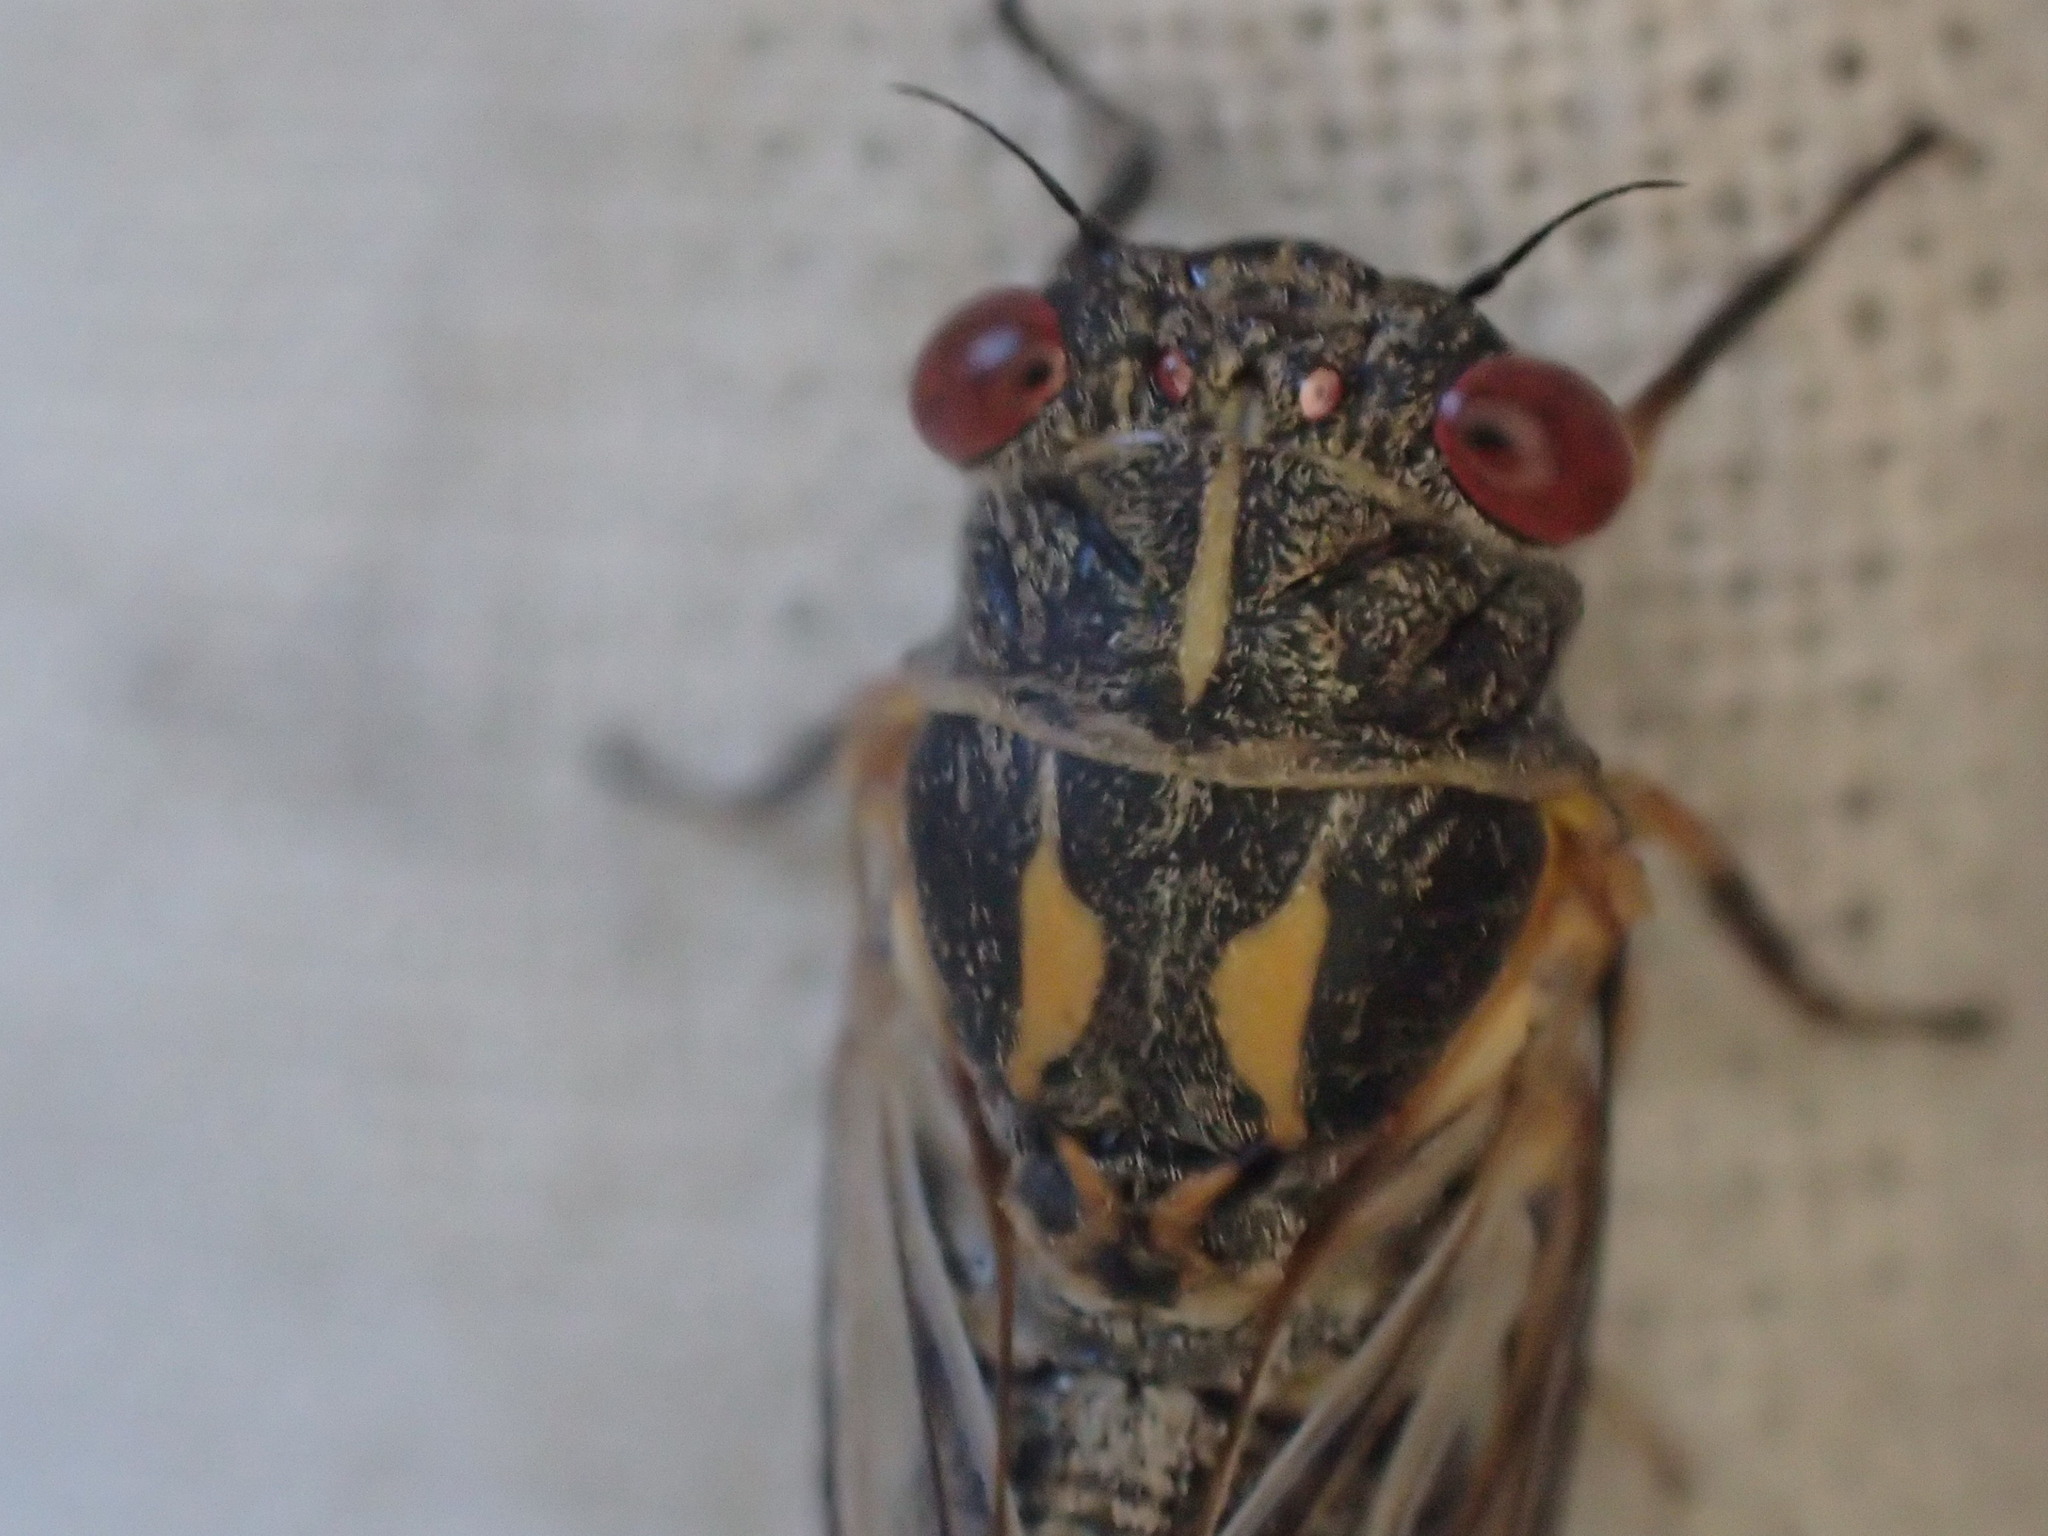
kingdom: Animalia
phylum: Arthropoda
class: Insecta
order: Hemiptera
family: Cicadidae
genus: Popplepsalta
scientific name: Popplepsalta corymbiae
